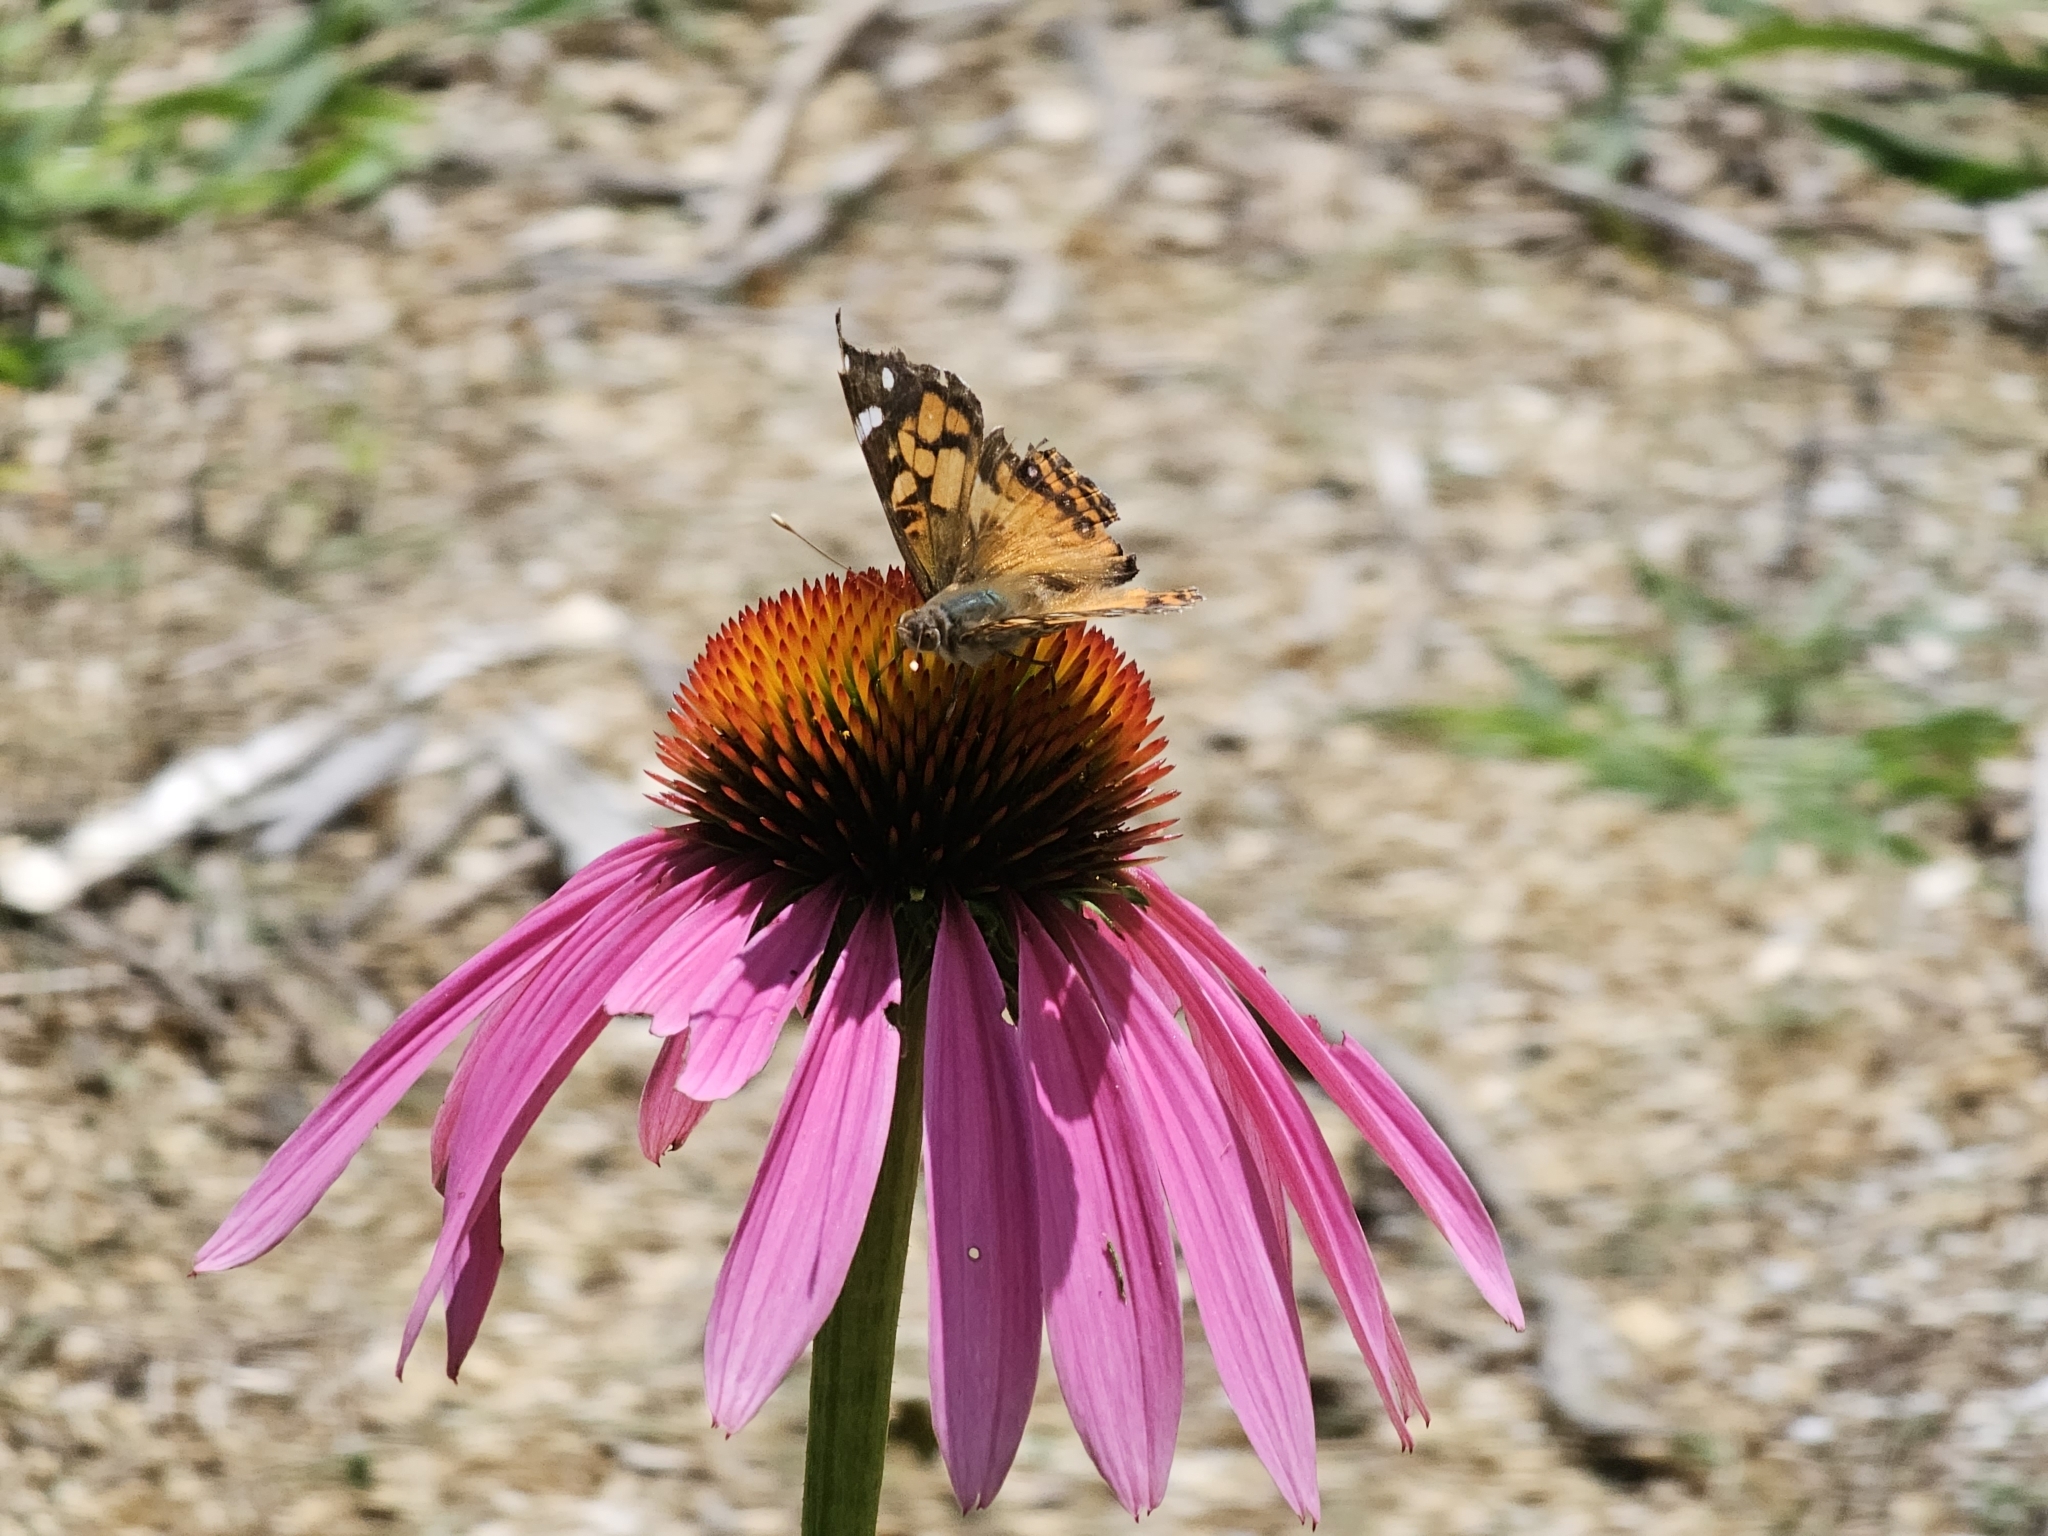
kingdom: Animalia
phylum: Arthropoda
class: Insecta
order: Lepidoptera
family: Nymphalidae
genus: Vanessa
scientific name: Vanessa virginiensis
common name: American lady
